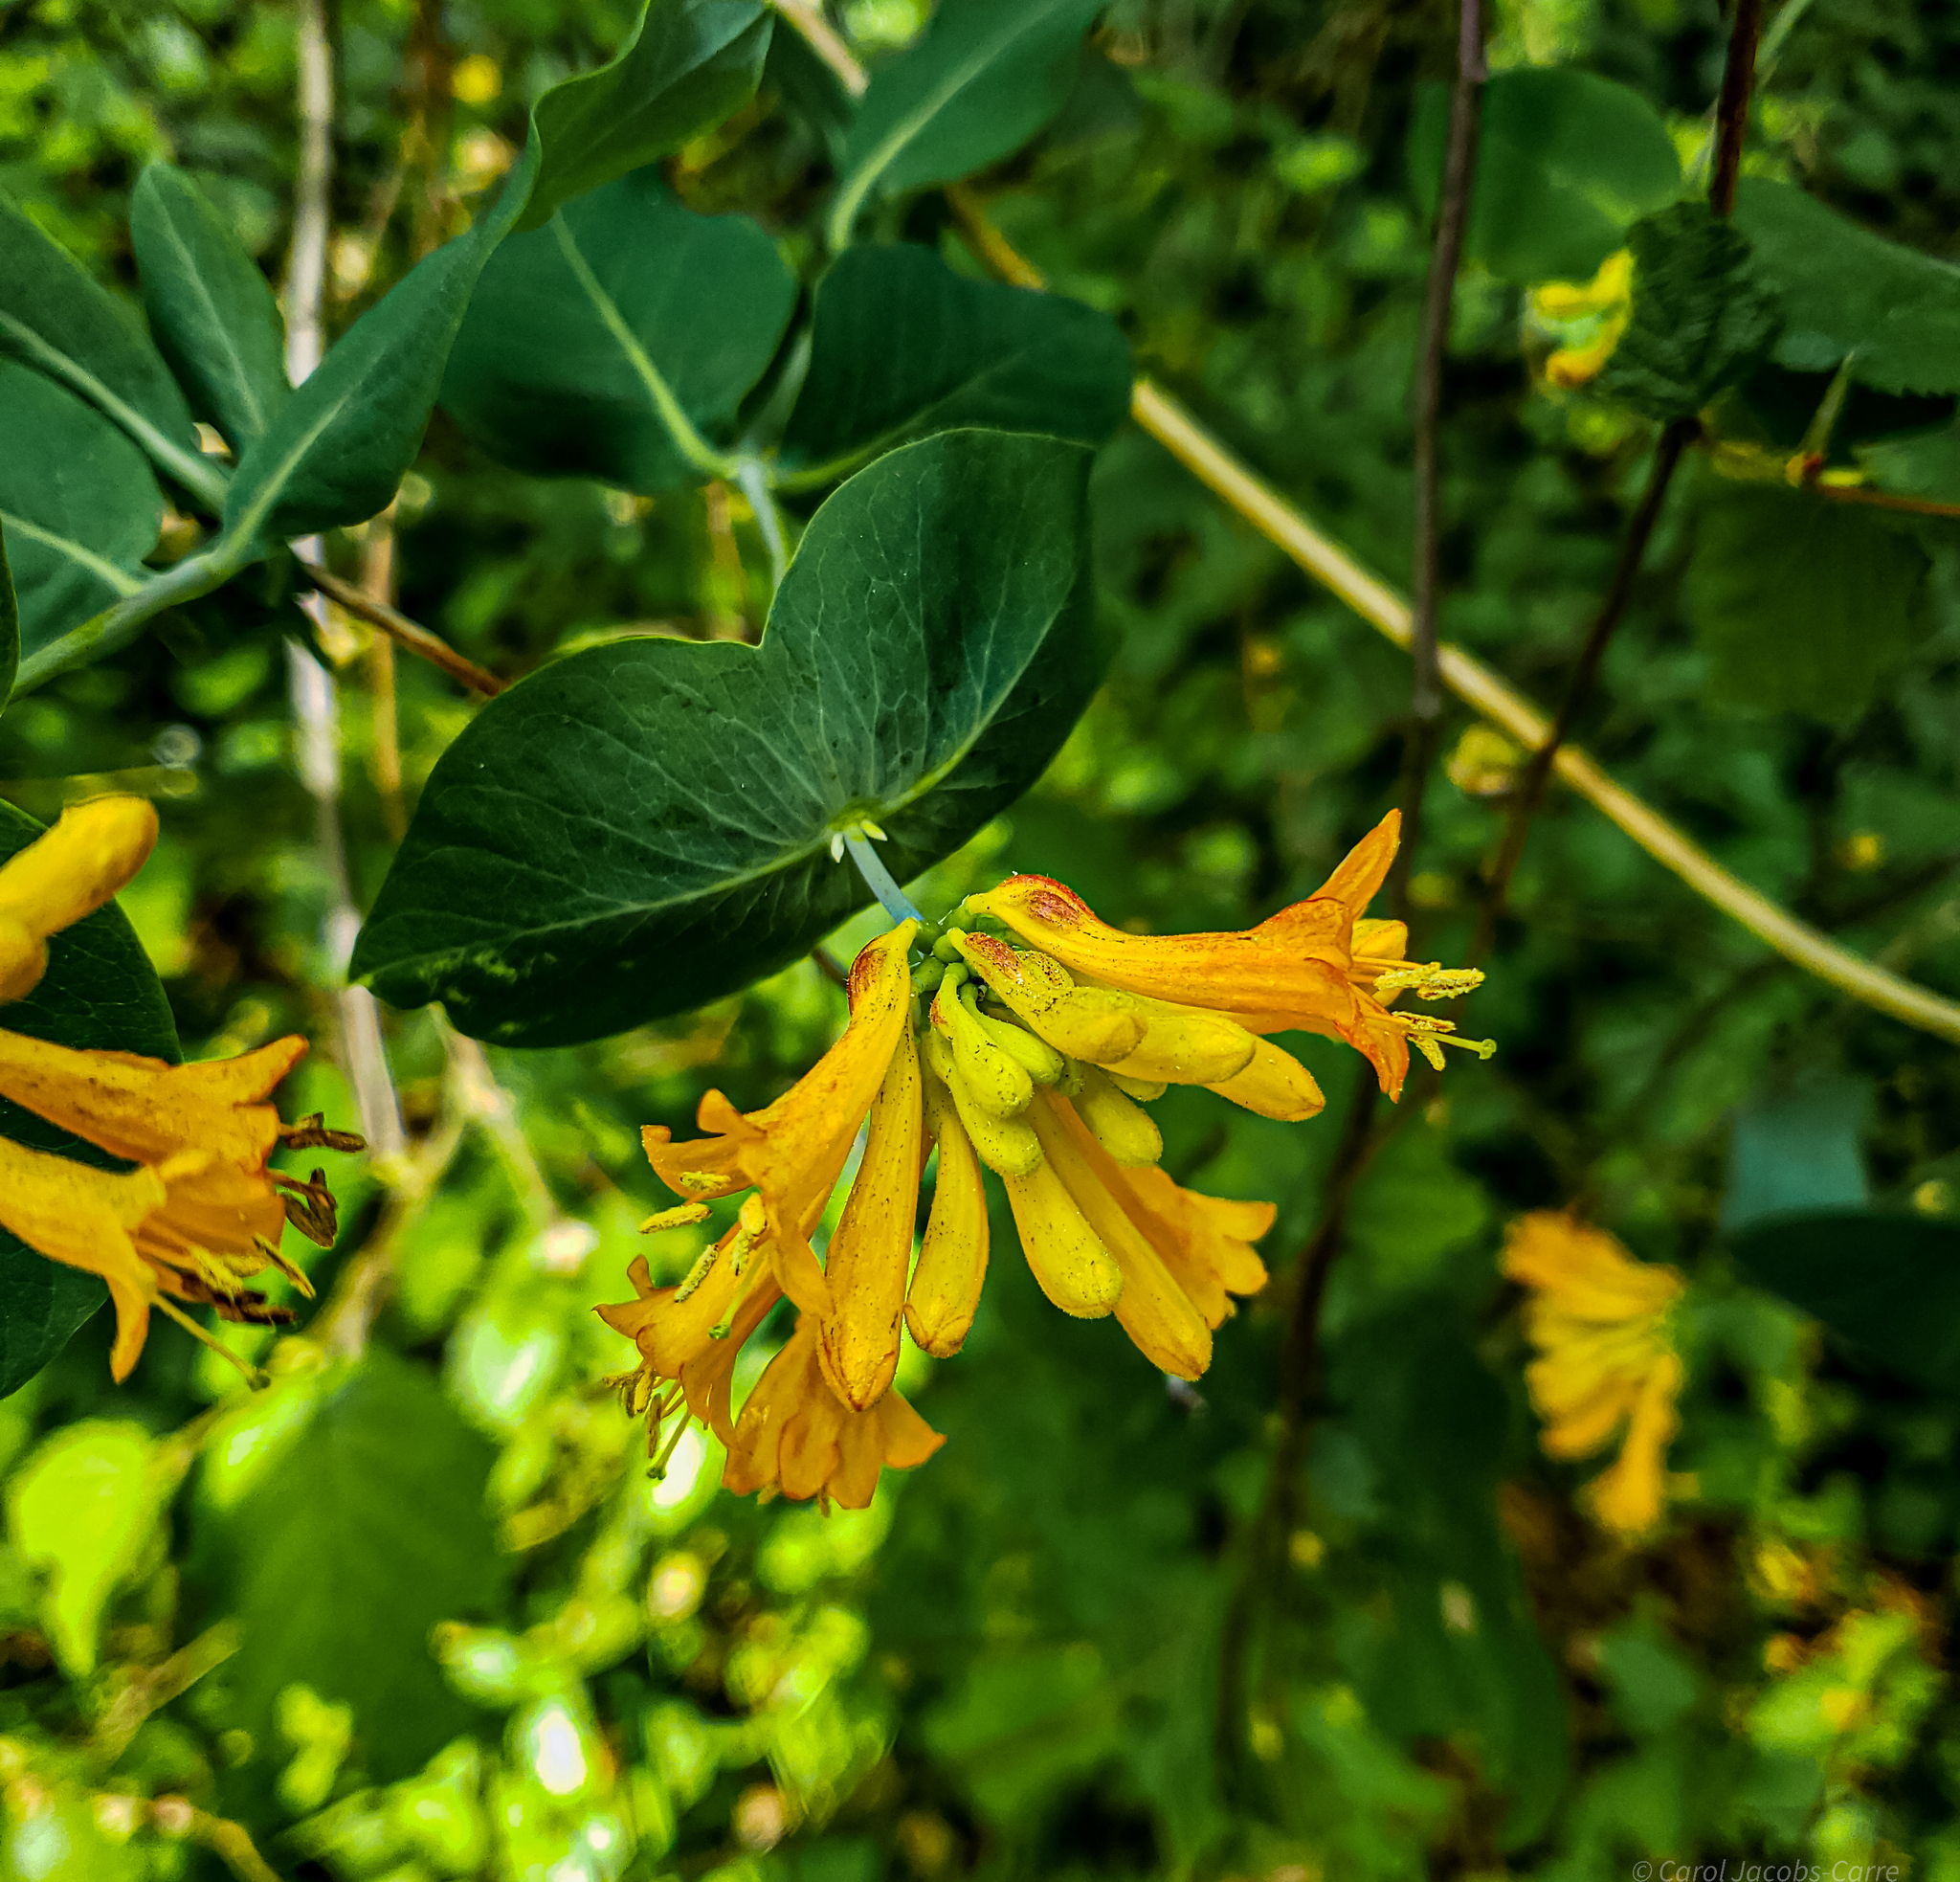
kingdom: Plantae
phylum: Tracheophyta
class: Magnoliopsida
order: Dipsacales
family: Caprifoliaceae
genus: Lonicera
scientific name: Lonicera ciliosa
